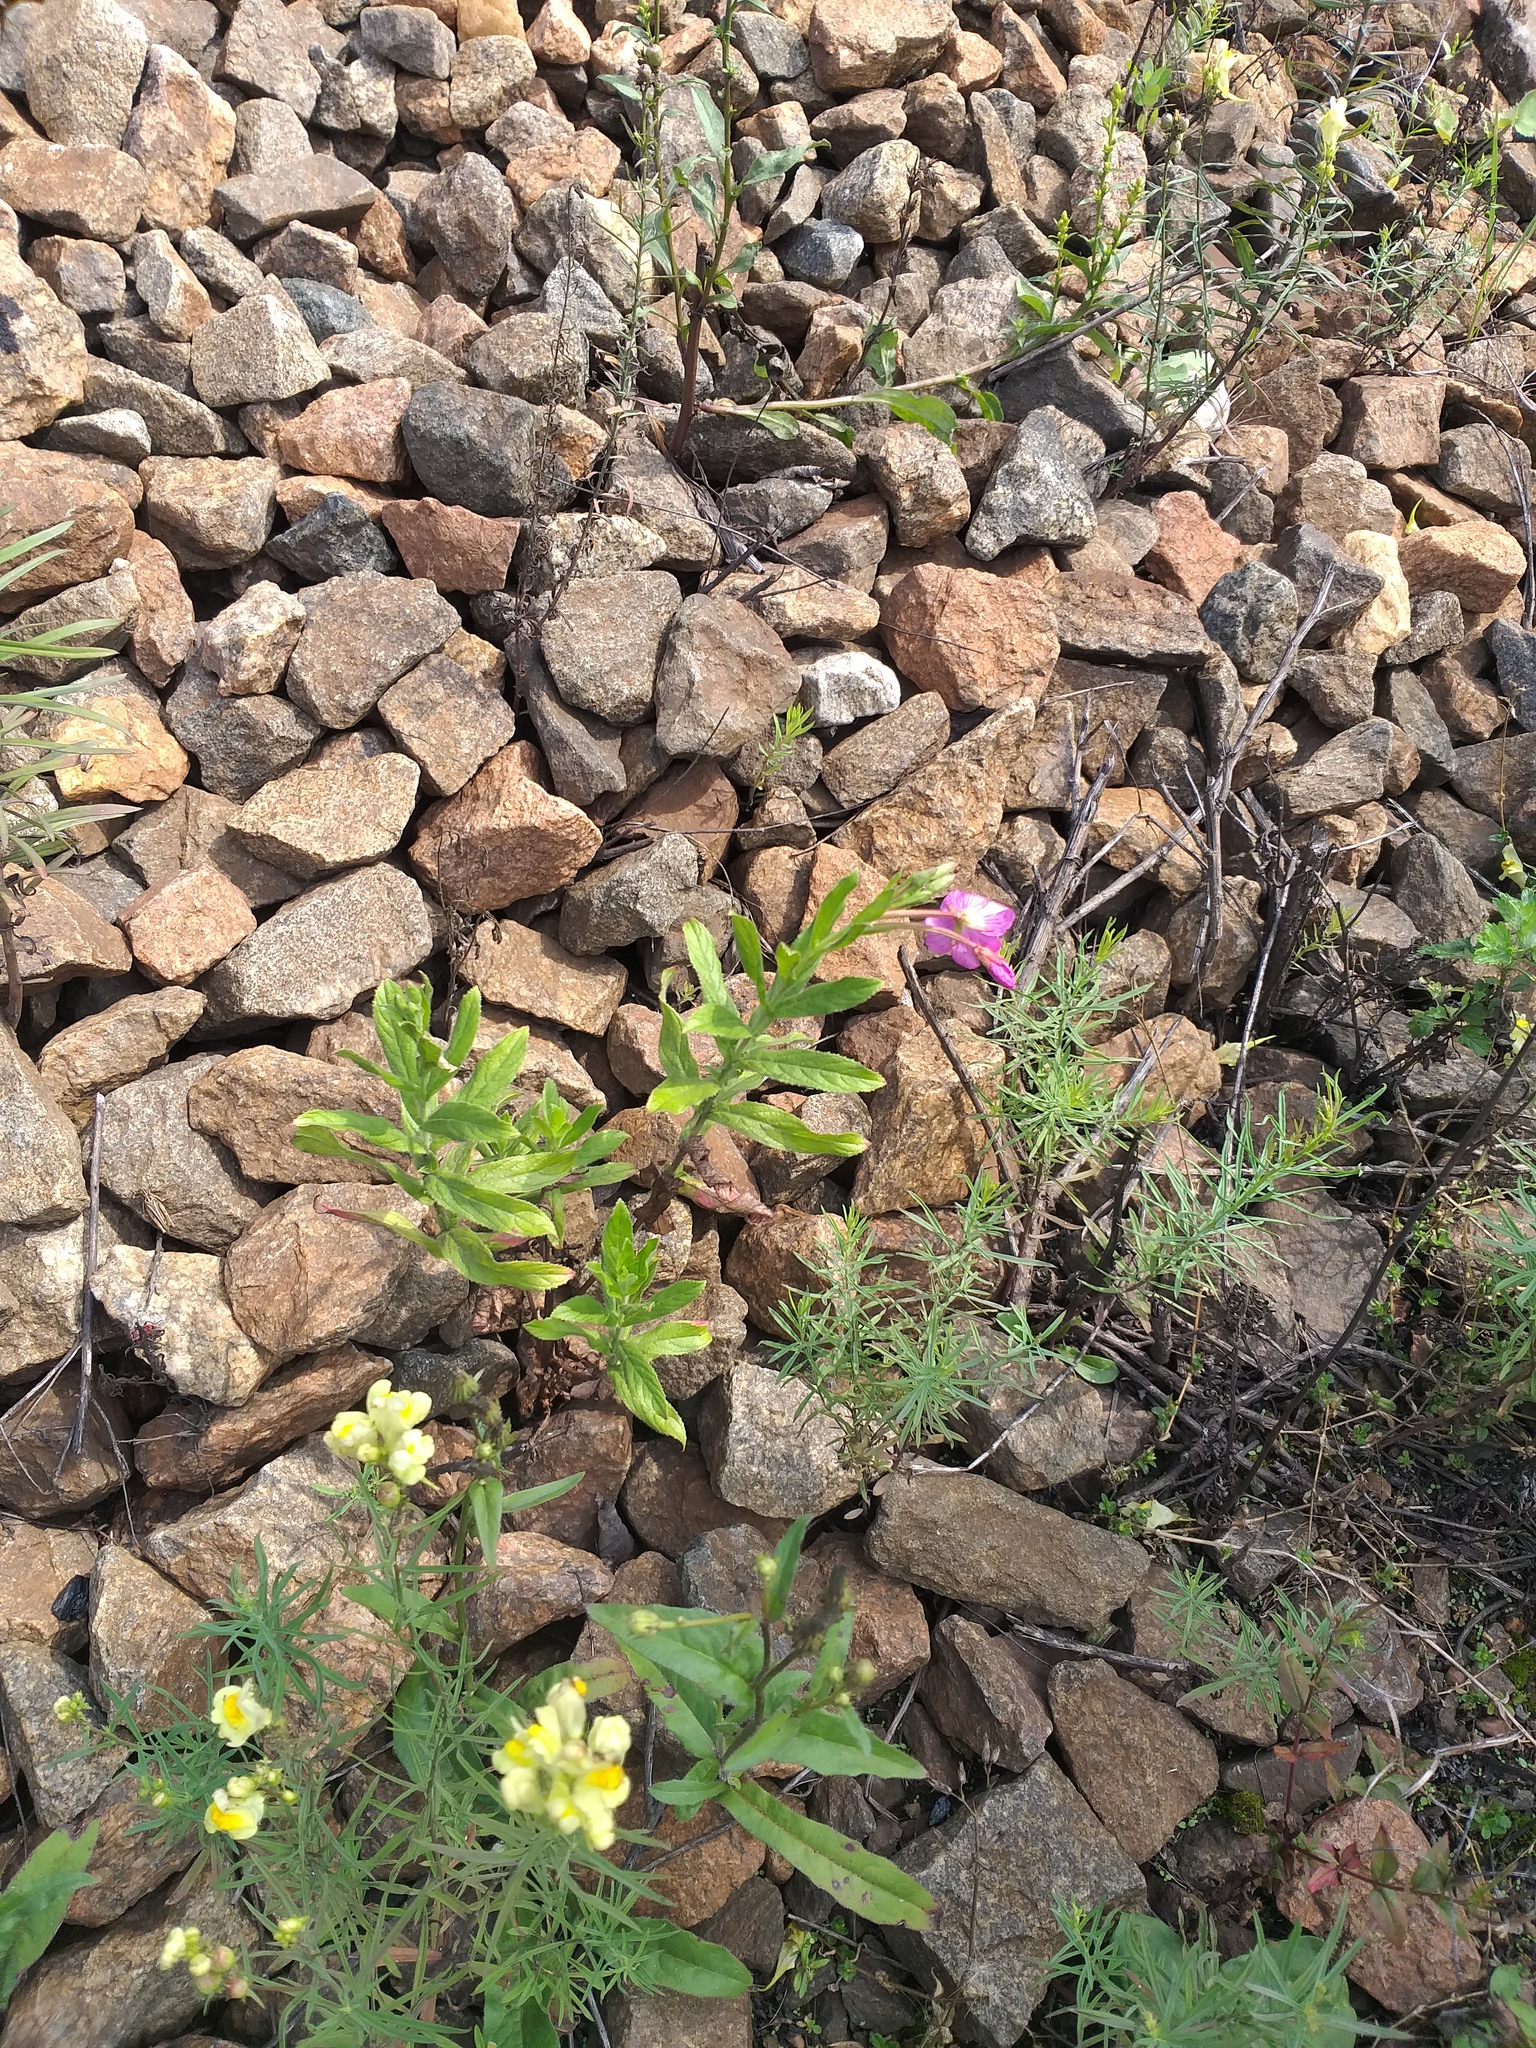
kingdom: Plantae
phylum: Tracheophyta
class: Magnoliopsida
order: Myrtales
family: Onagraceae
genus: Epilobium
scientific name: Epilobium hirsutum
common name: Great willowherb
